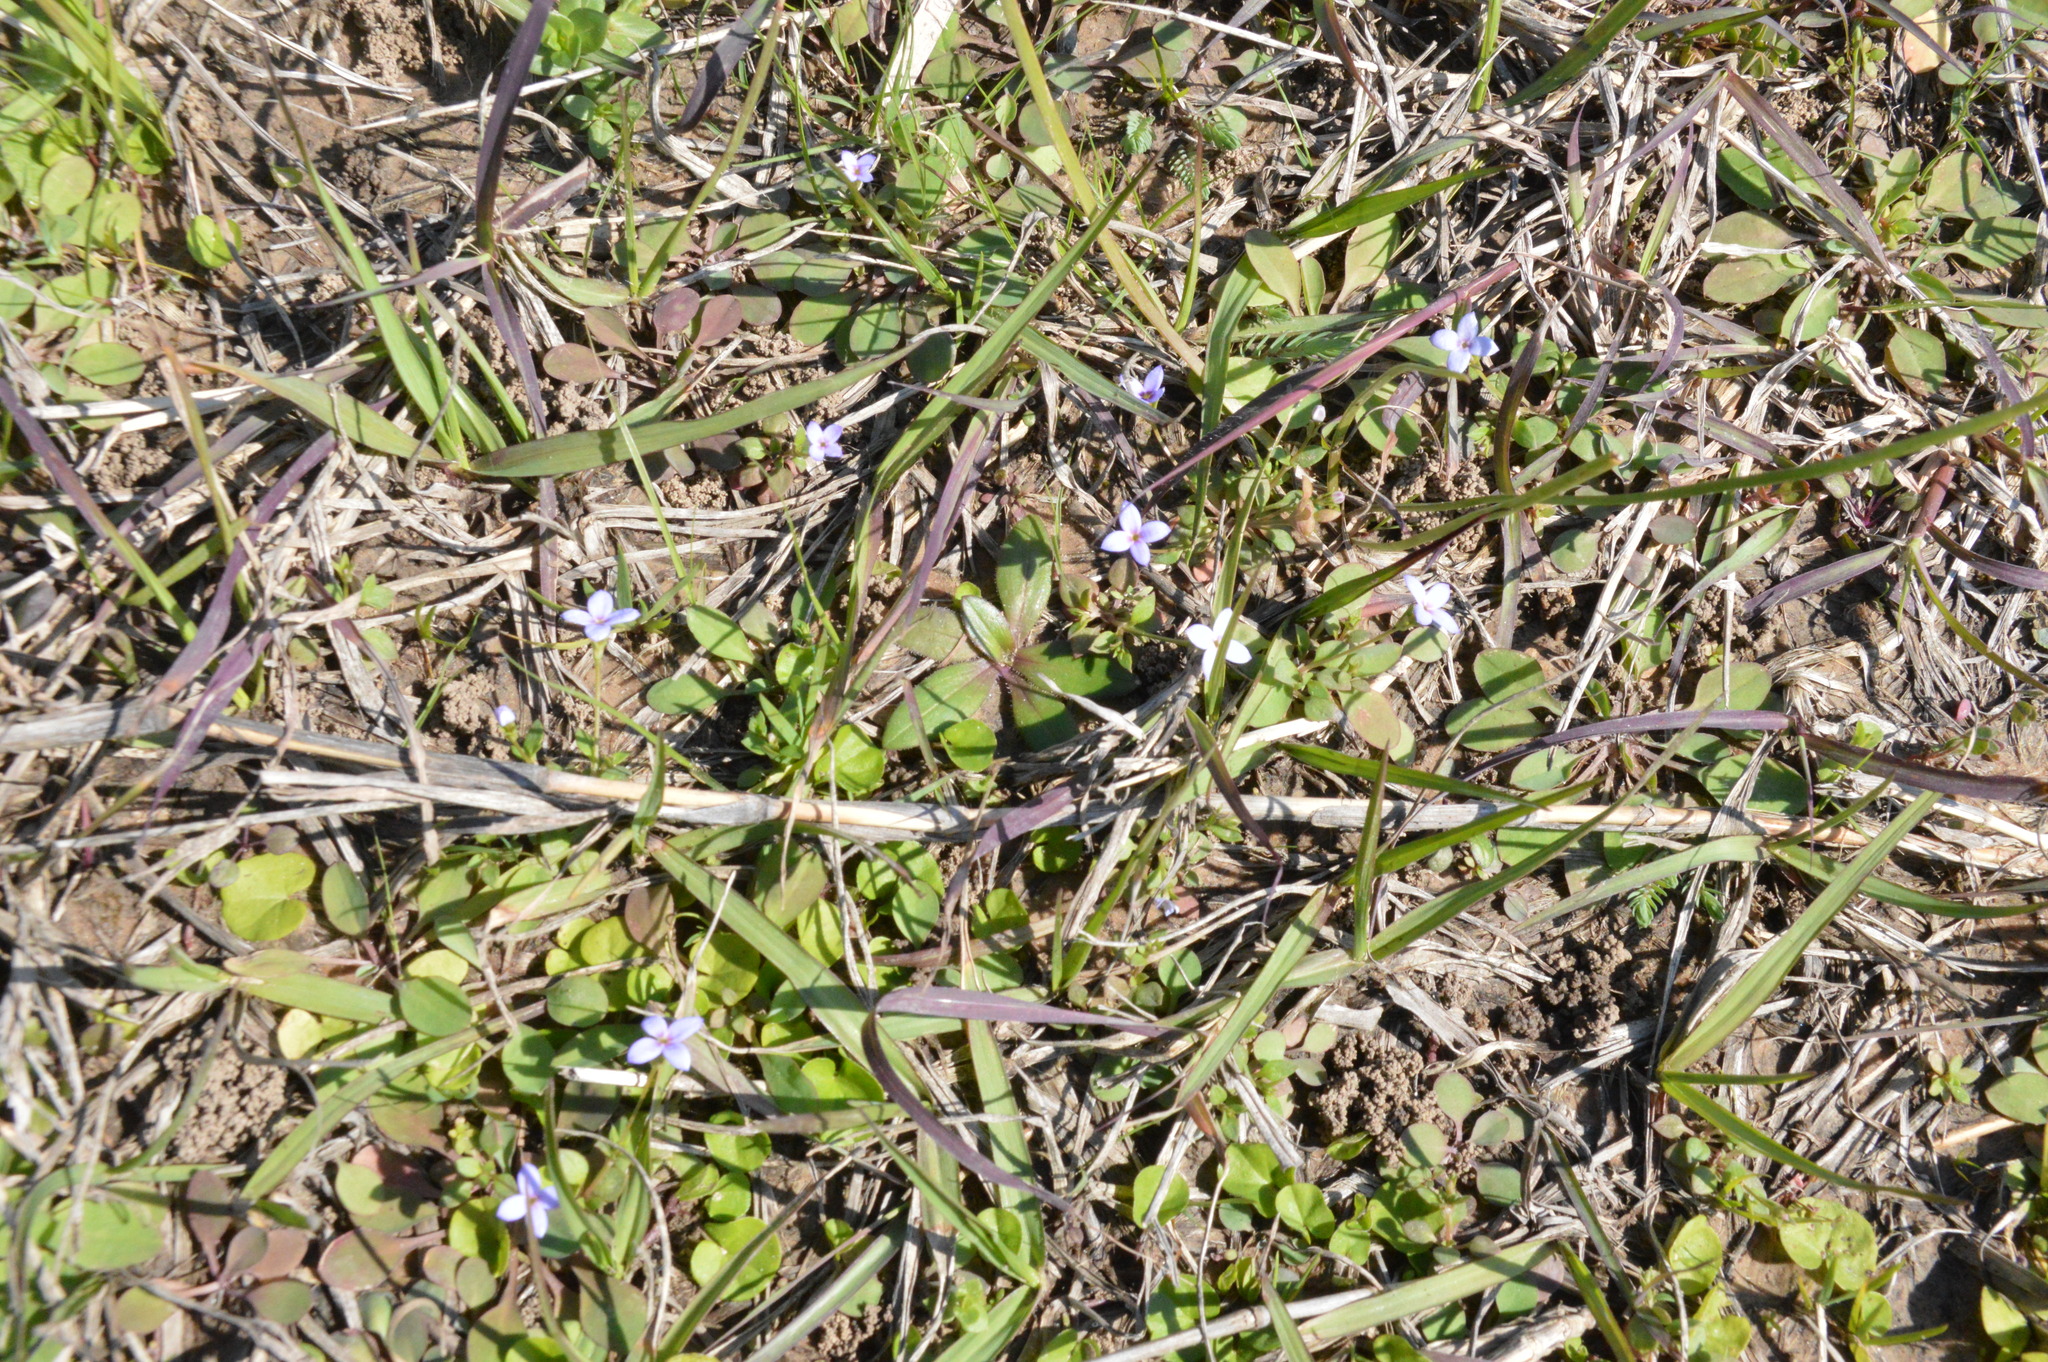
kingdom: Plantae
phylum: Tracheophyta
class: Magnoliopsida
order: Gentianales
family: Rubiaceae
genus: Houstonia
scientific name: Houstonia pusilla
